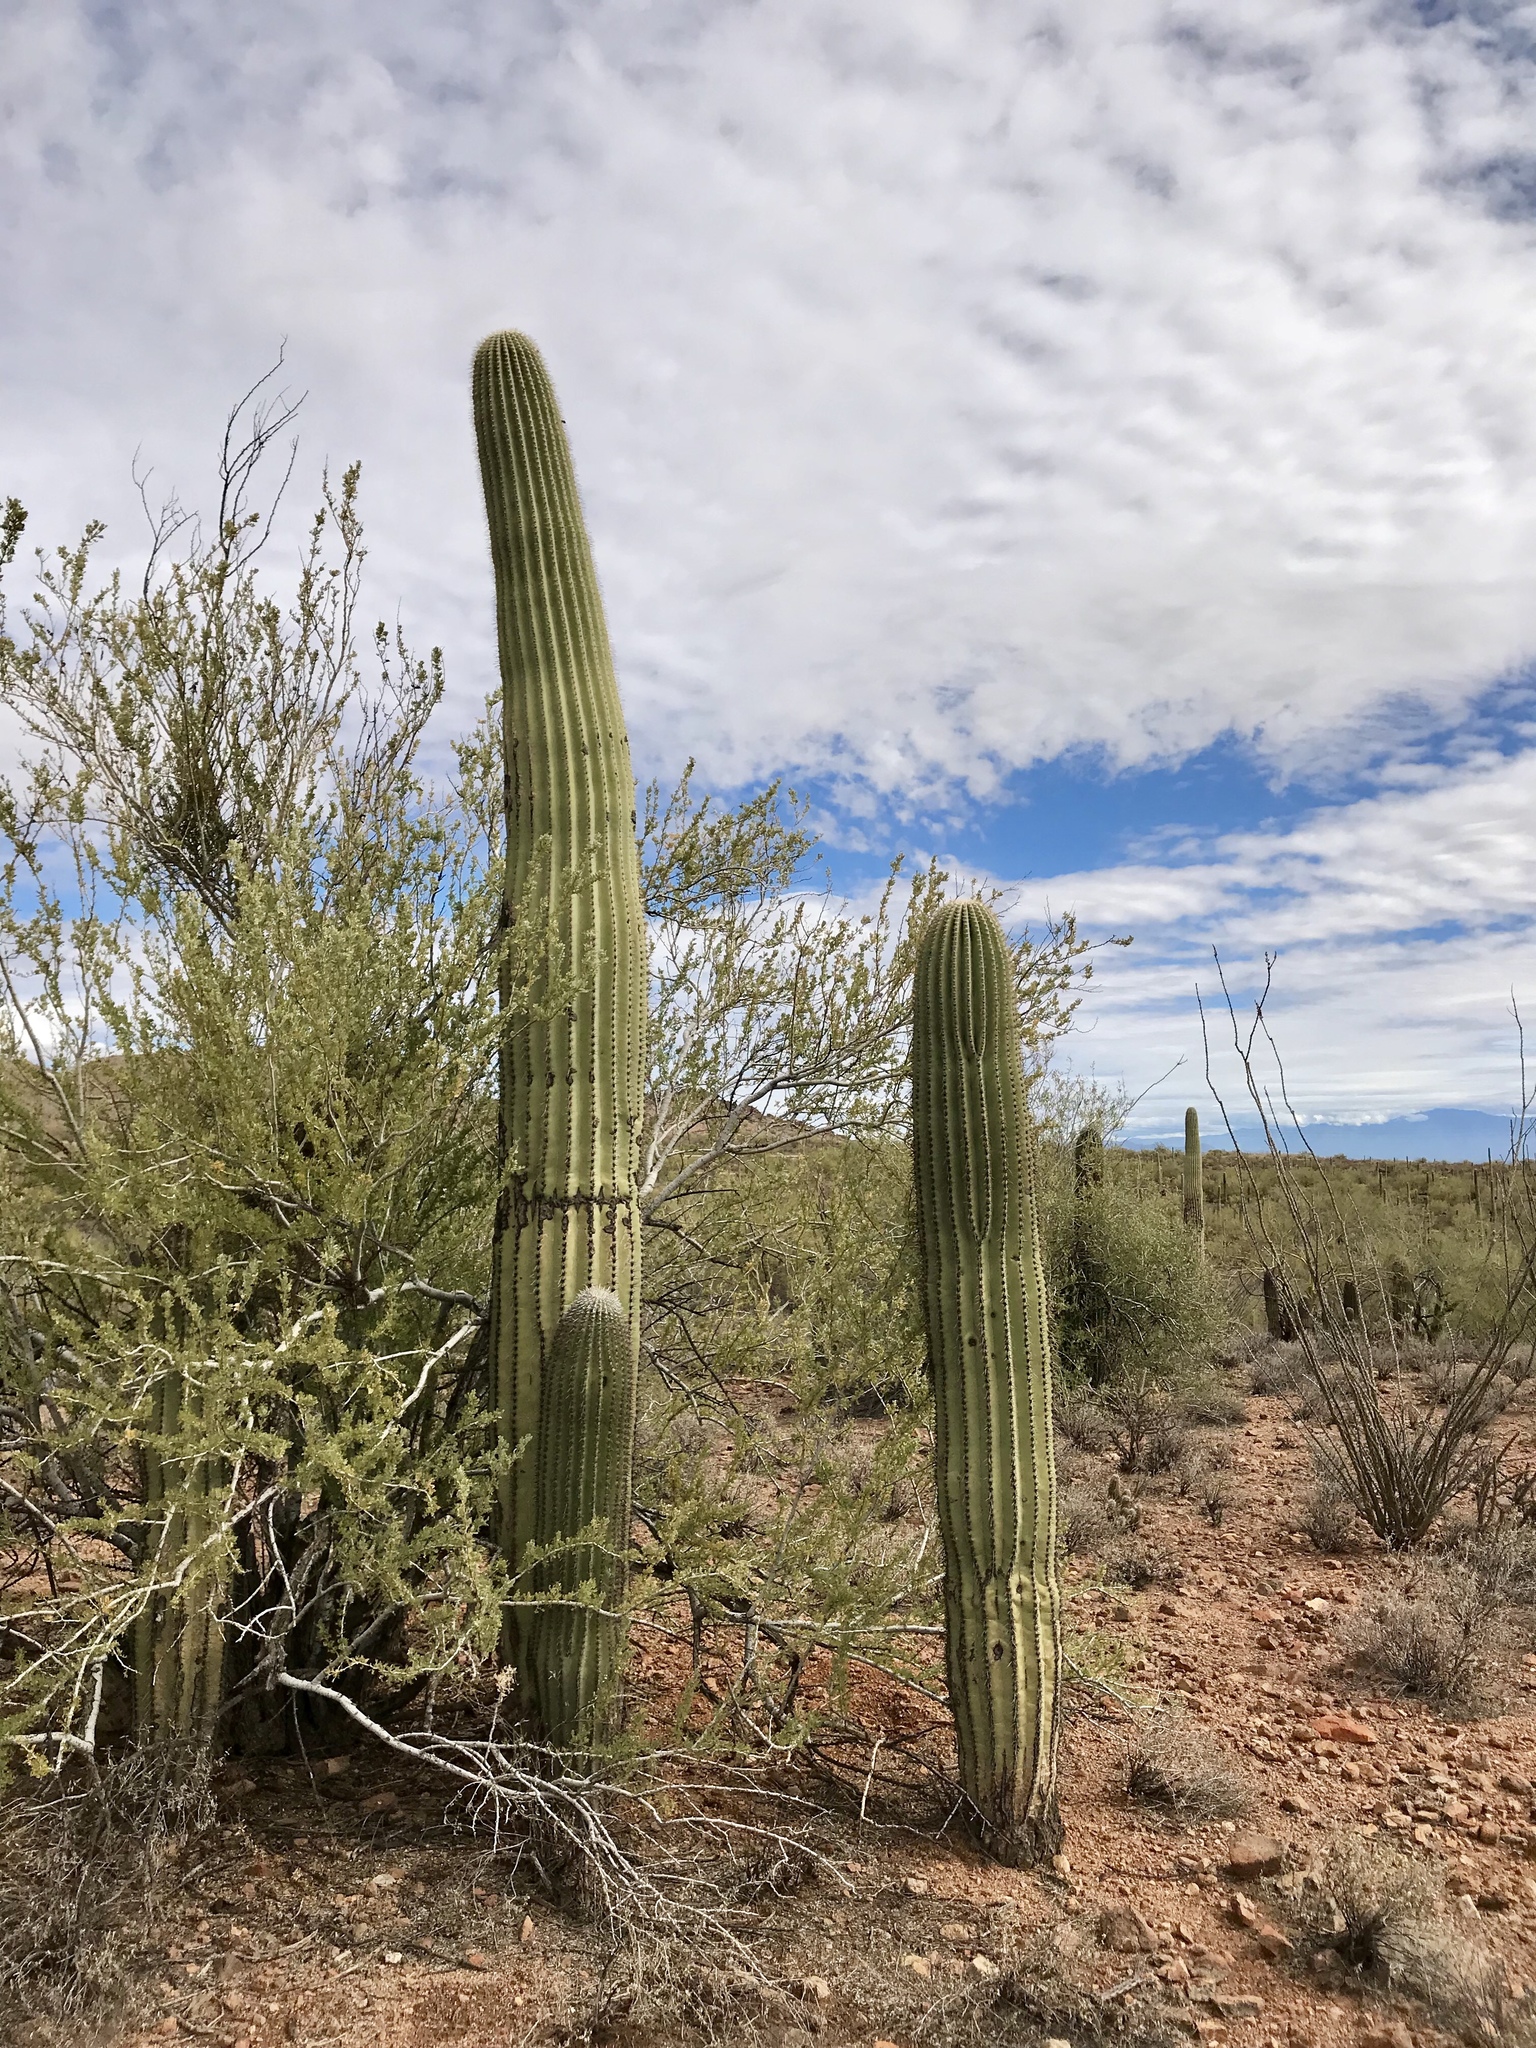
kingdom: Plantae
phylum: Tracheophyta
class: Magnoliopsida
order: Caryophyllales
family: Cactaceae
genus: Carnegiea
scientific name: Carnegiea gigantea
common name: Saguaro
